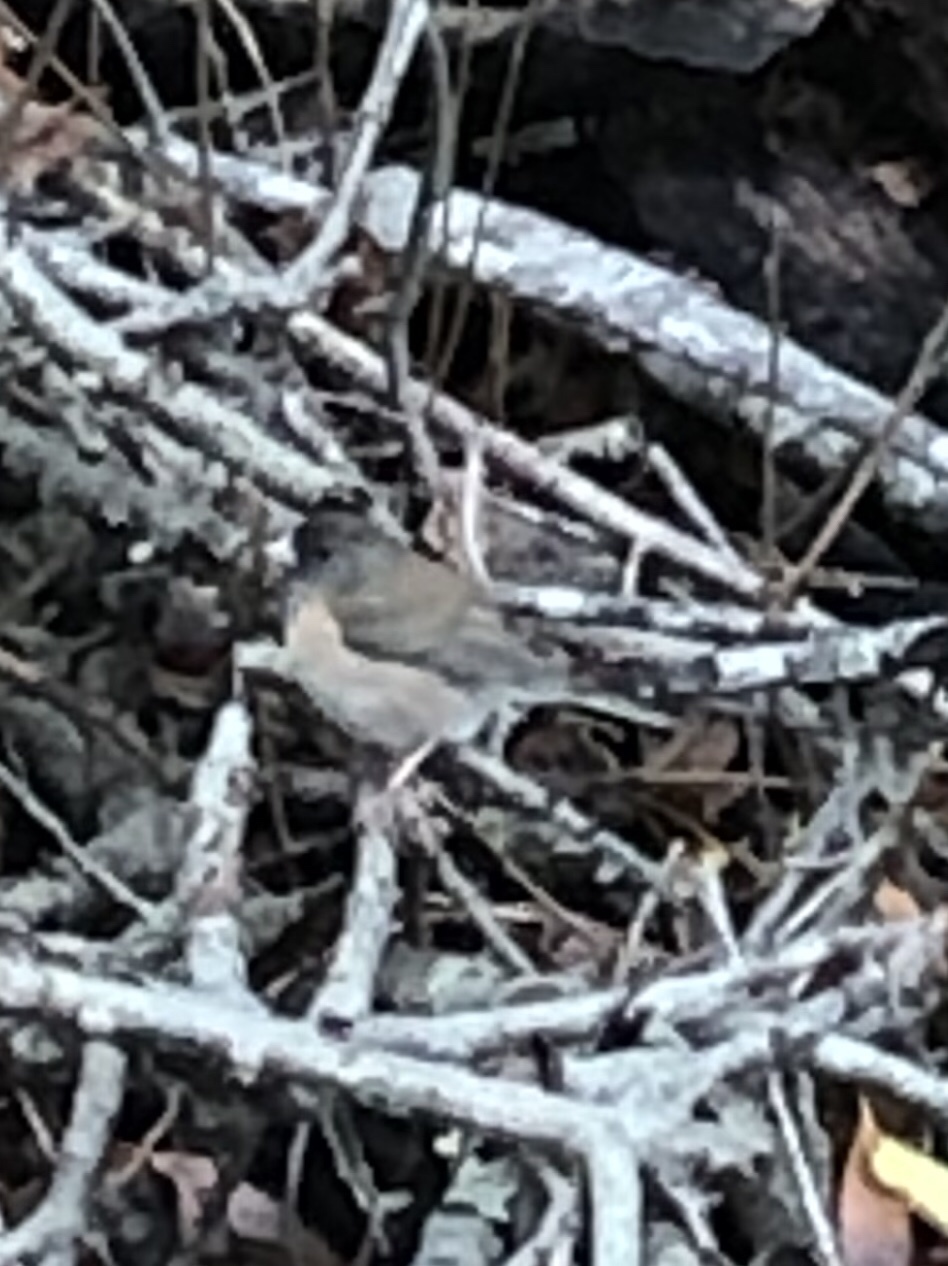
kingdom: Animalia
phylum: Chordata
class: Aves
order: Passeriformes
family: Passerellidae
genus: Junco
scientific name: Junco hyemalis
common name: Dark-eyed junco
